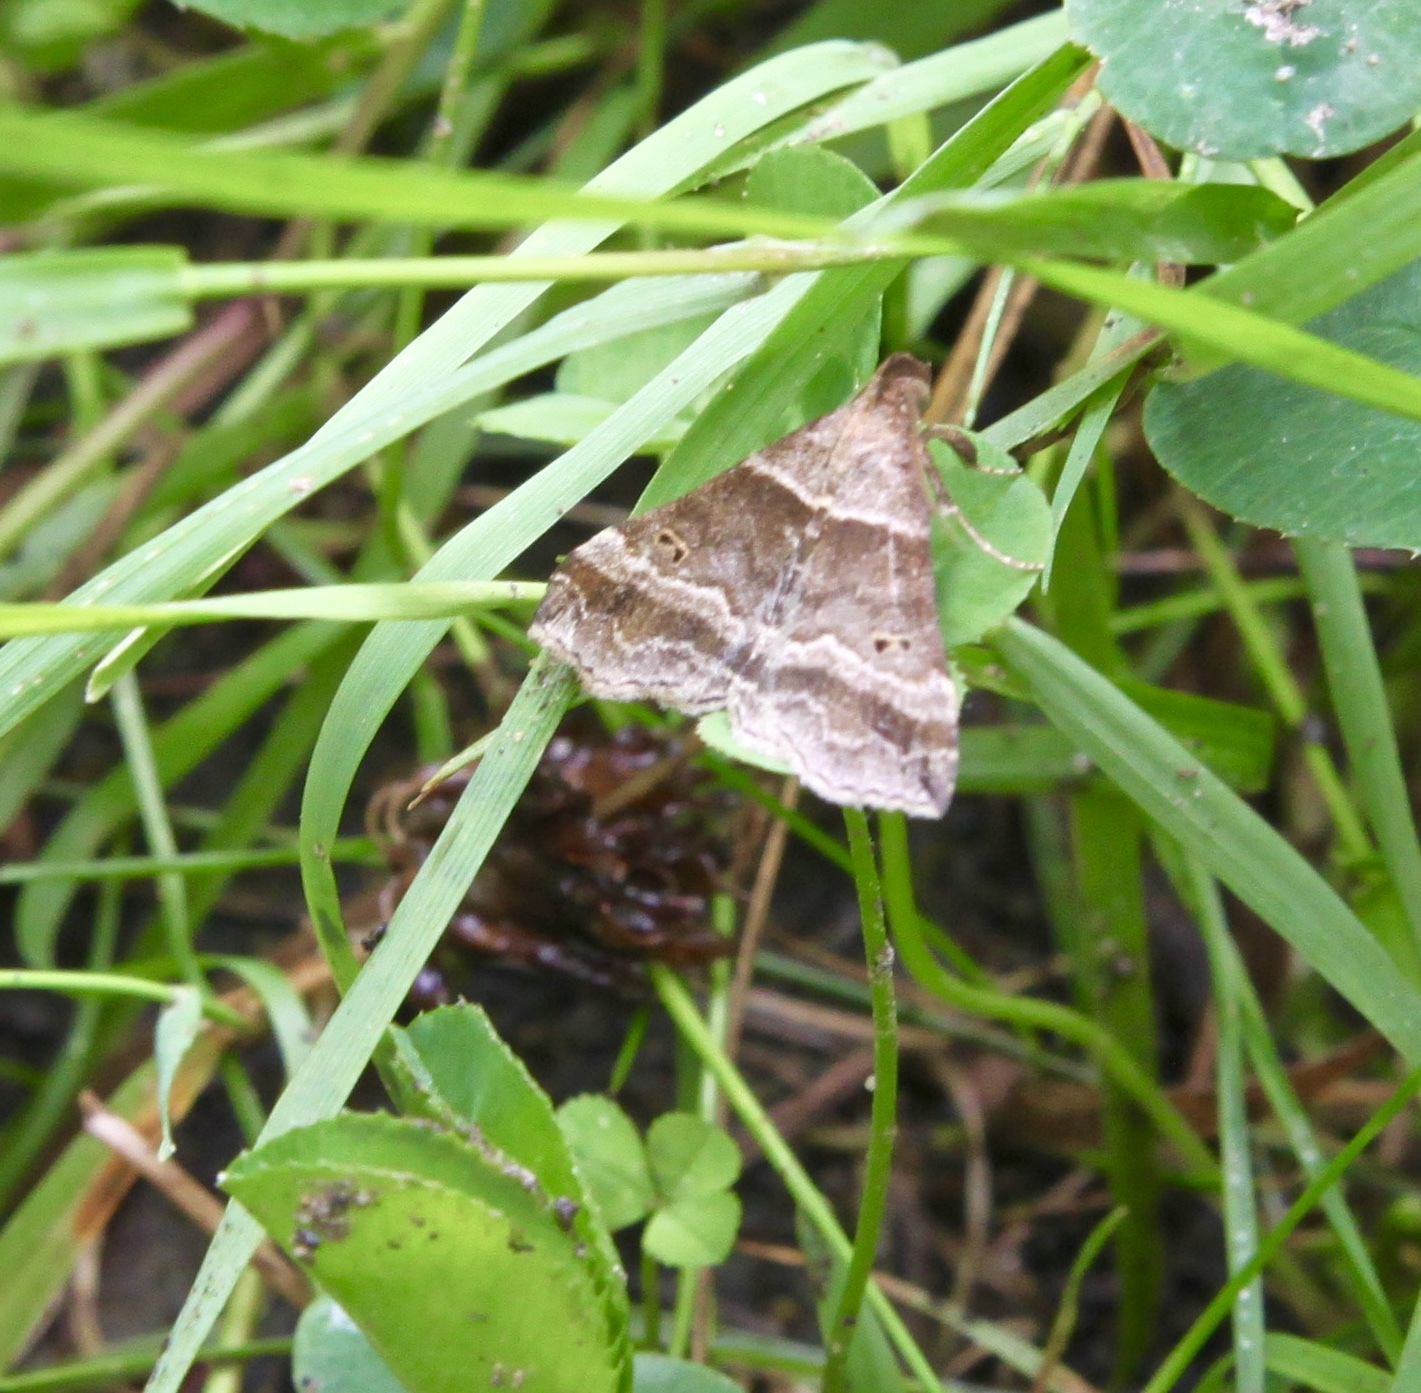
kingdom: Animalia
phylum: Arthropoda
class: Insecta
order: Lepidoptera
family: Erebidae
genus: Phaeolita
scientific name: Phaeolita pyramusalis
